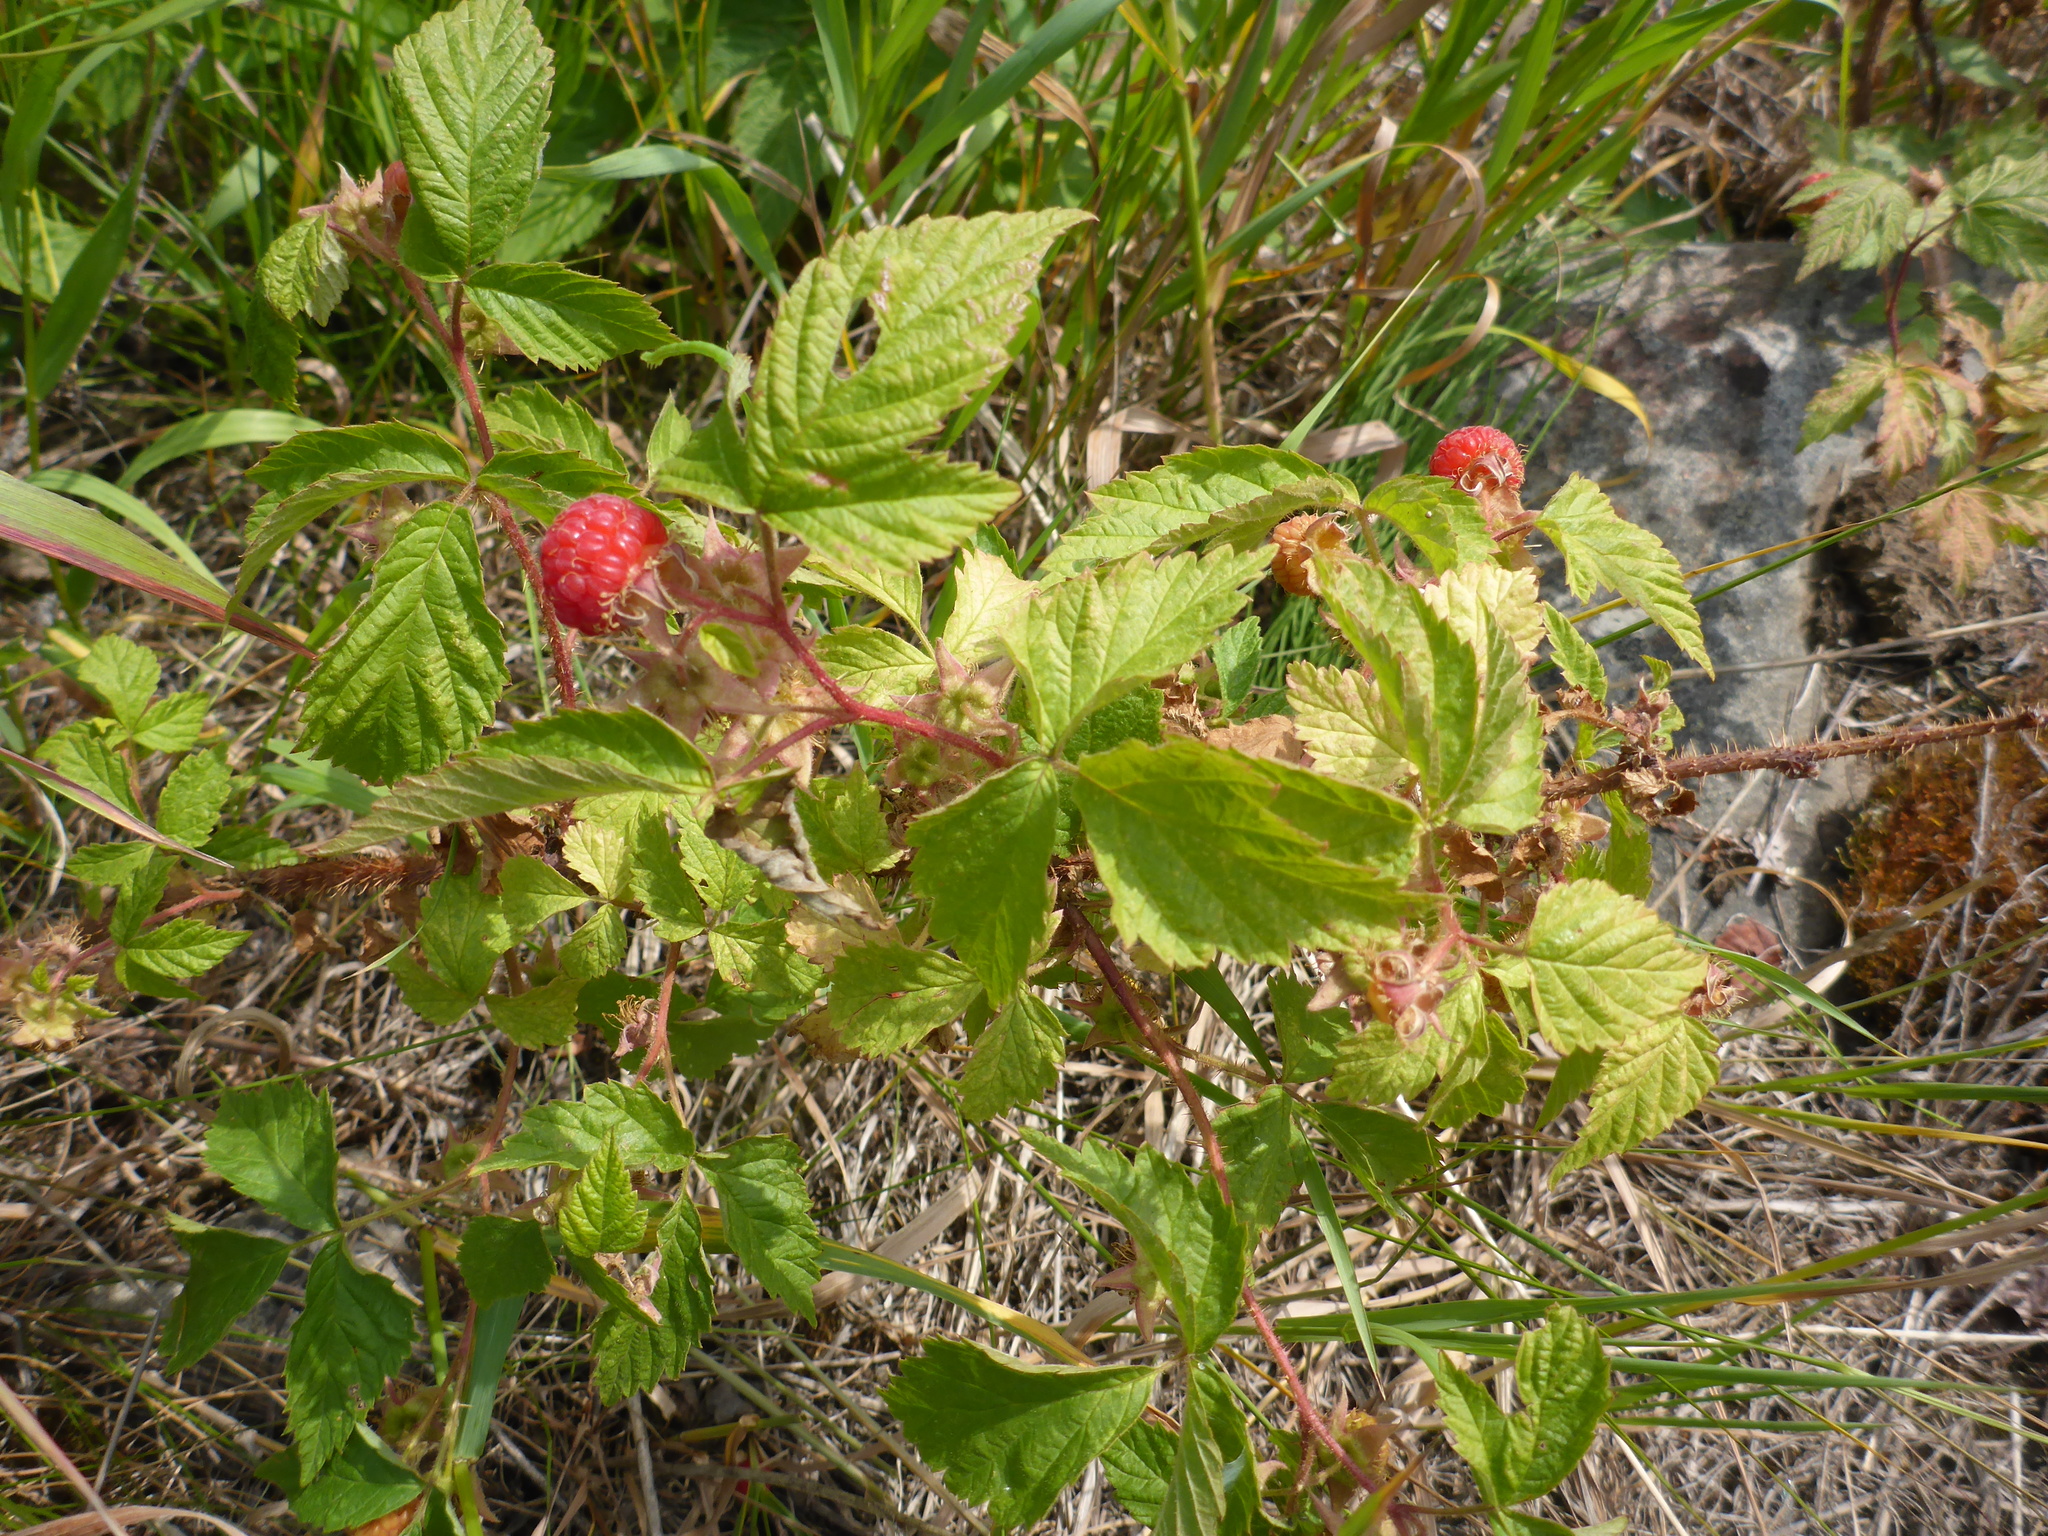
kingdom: Plantae
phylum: Tracheophyta
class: Magnoliopsida
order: Rosales
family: Rosaceae
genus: Rubus
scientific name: Rubus idaeus
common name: Raspberry
